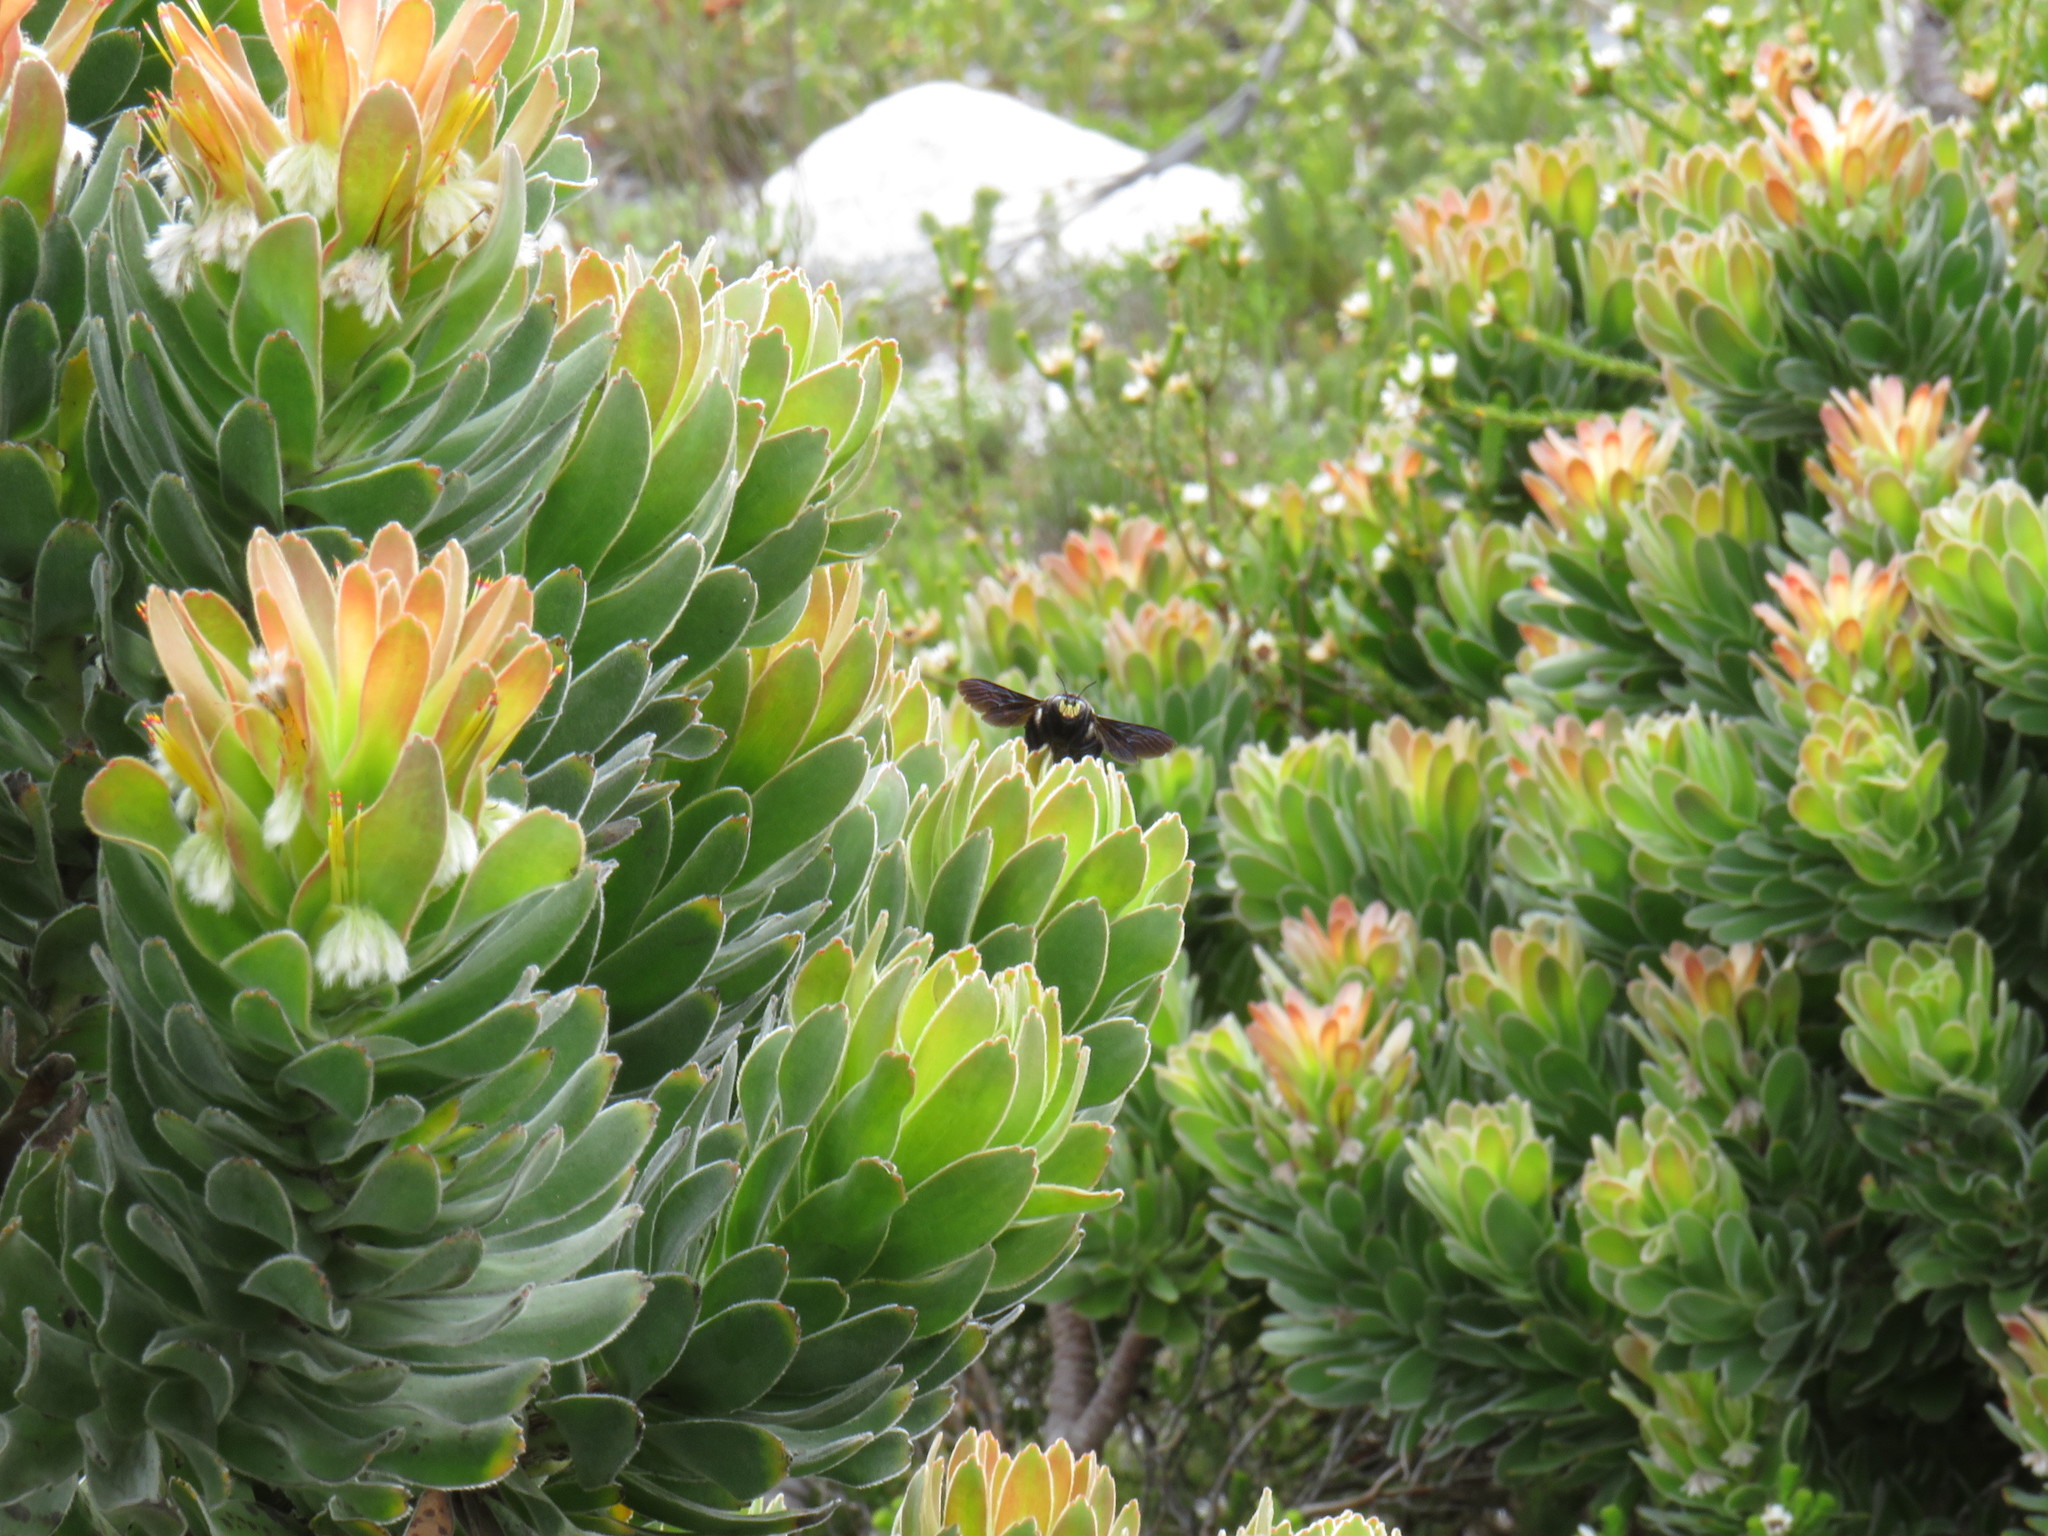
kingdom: Plantae
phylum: Tracheophyta
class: Liliopsida
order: Asparagales
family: Asparagaceae
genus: Lachenalia
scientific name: Lachenalia luteola
